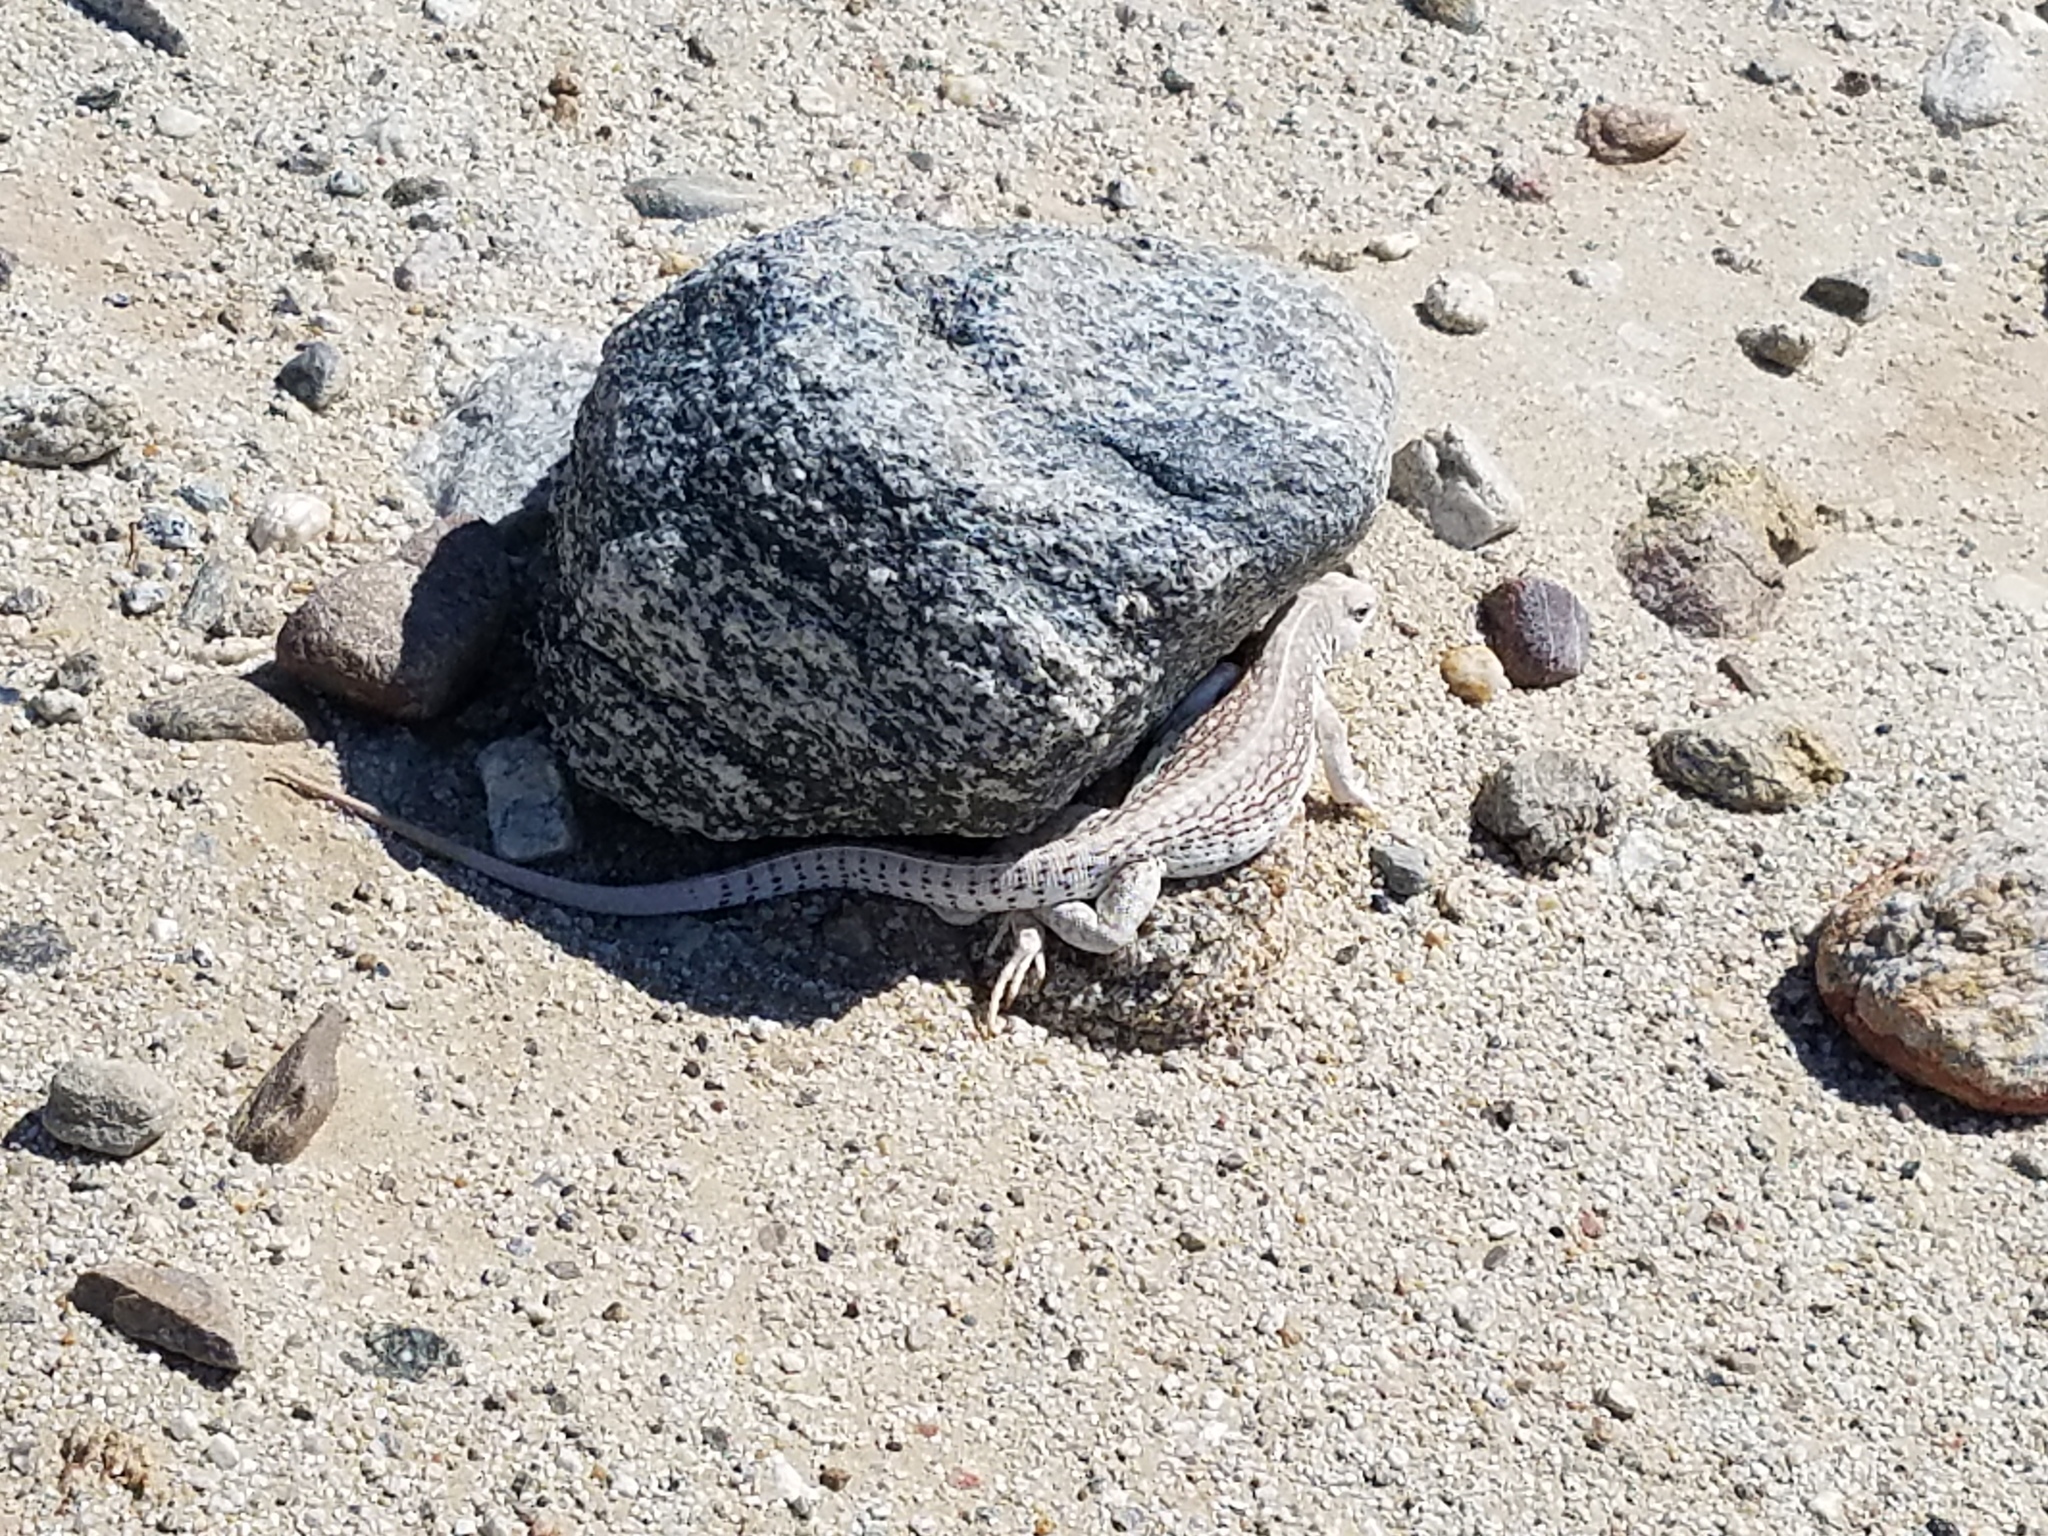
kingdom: Animalia
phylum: Chordata
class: Squamata
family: Iguanidae
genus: Dipsosaurus
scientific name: Dipsosaurus dorsalis
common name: Desert iguana
